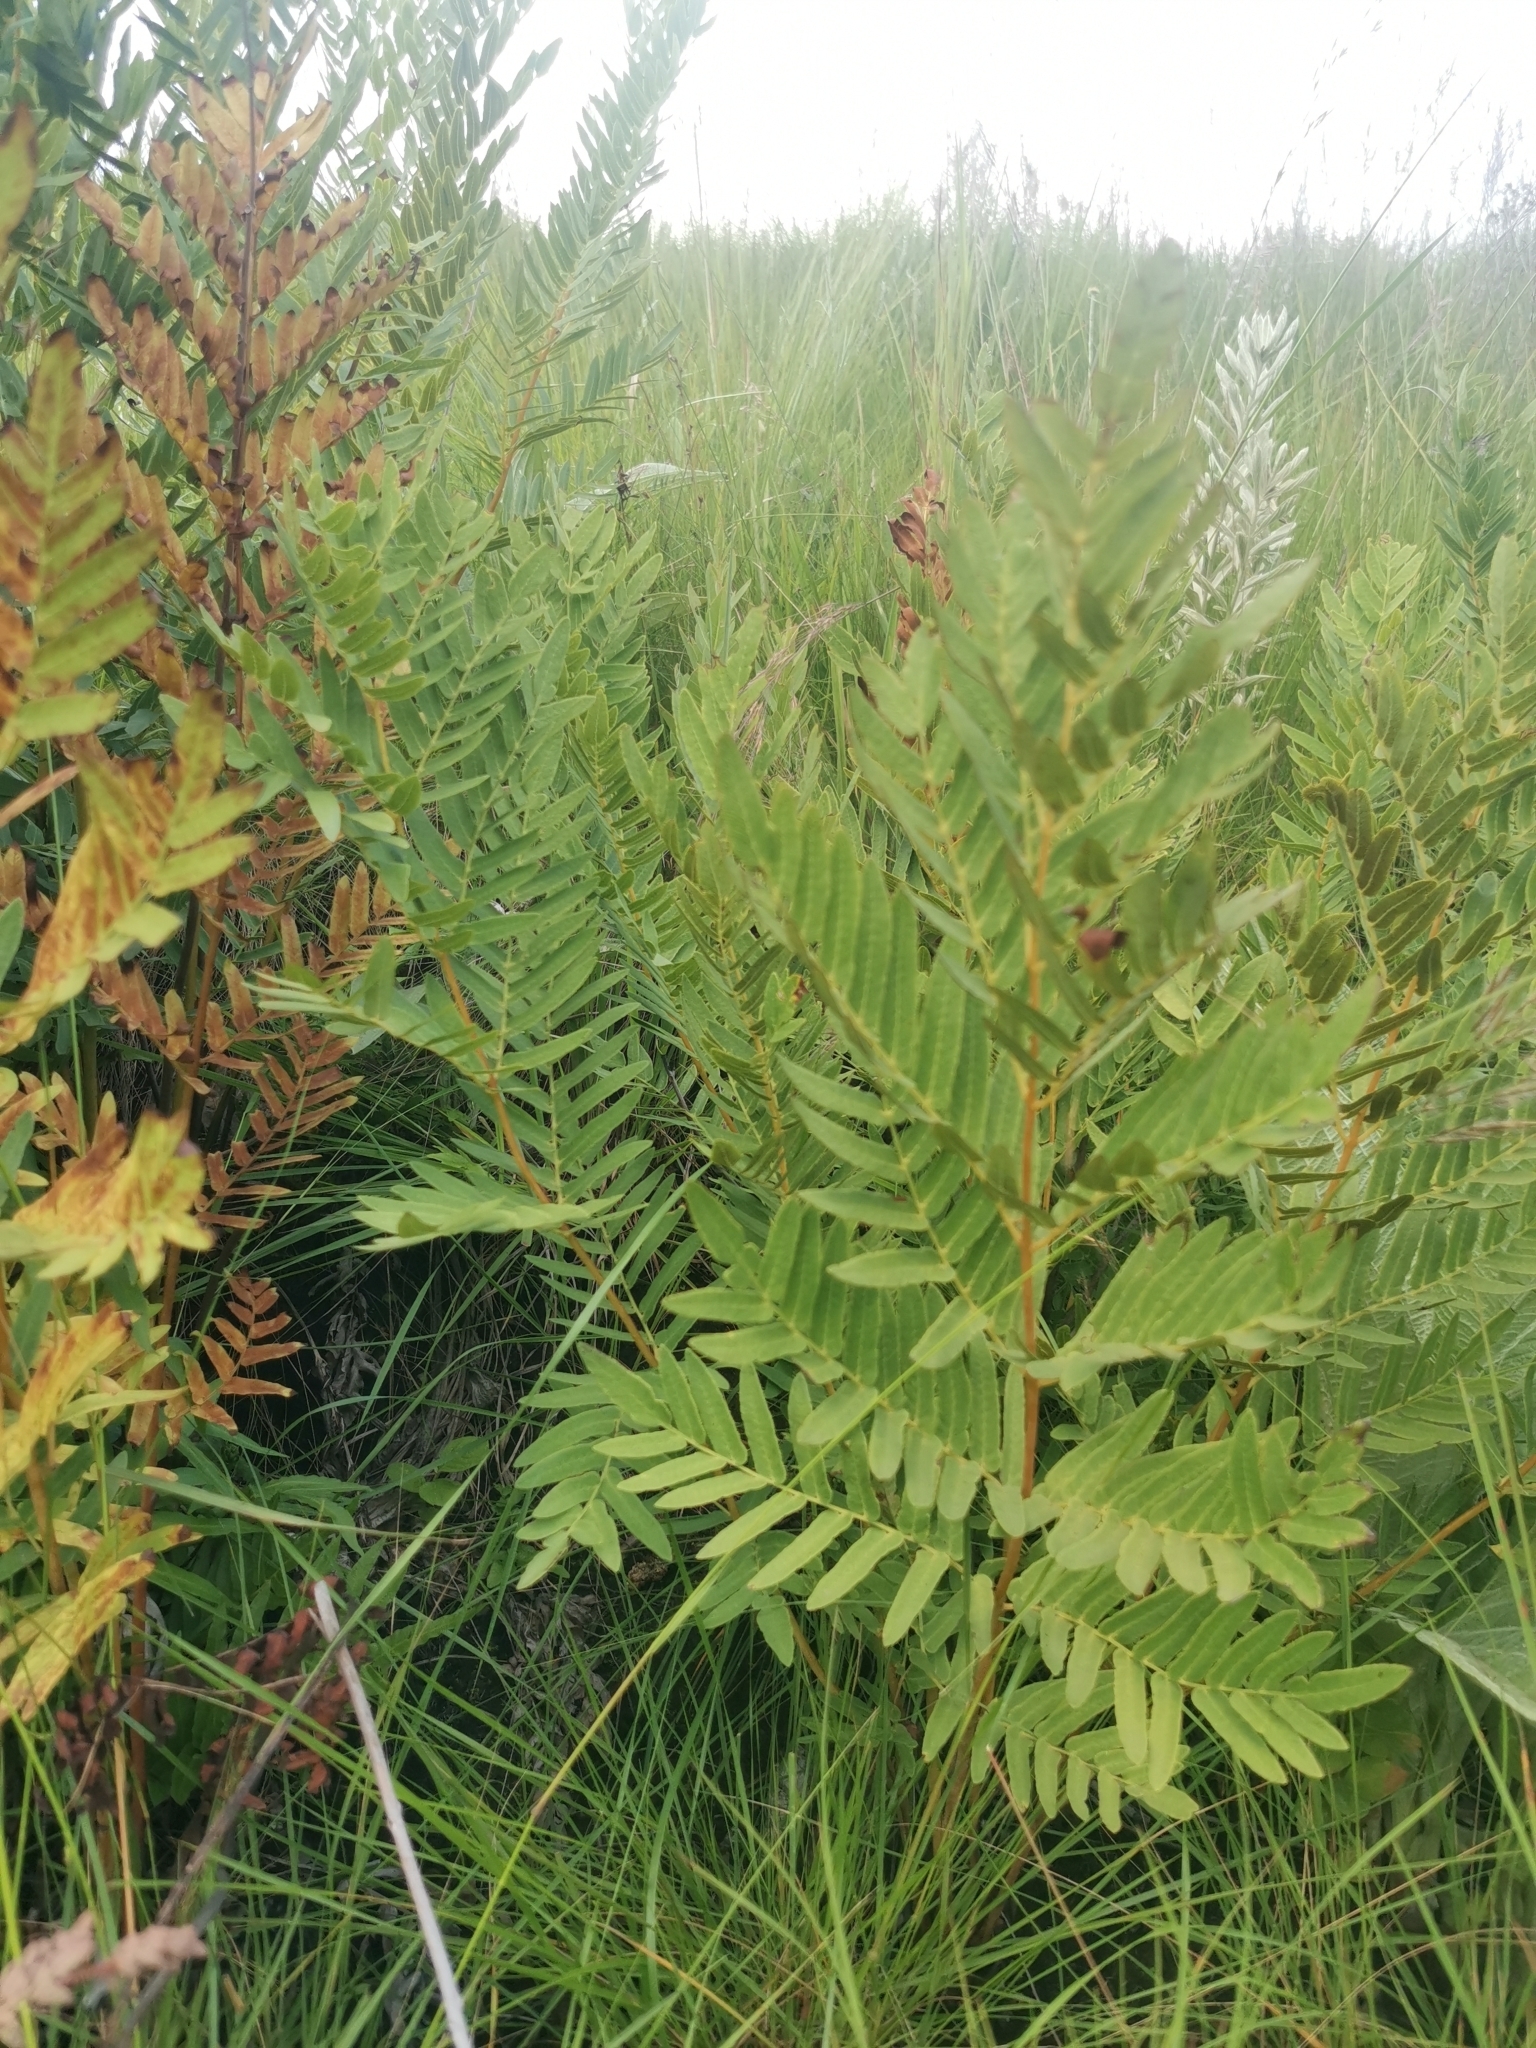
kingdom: Plantae
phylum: Tracheophyta
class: Polypodiopsida
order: Osmundales
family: Osmundaceae
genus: Osmunda
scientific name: Osmunda acuta
